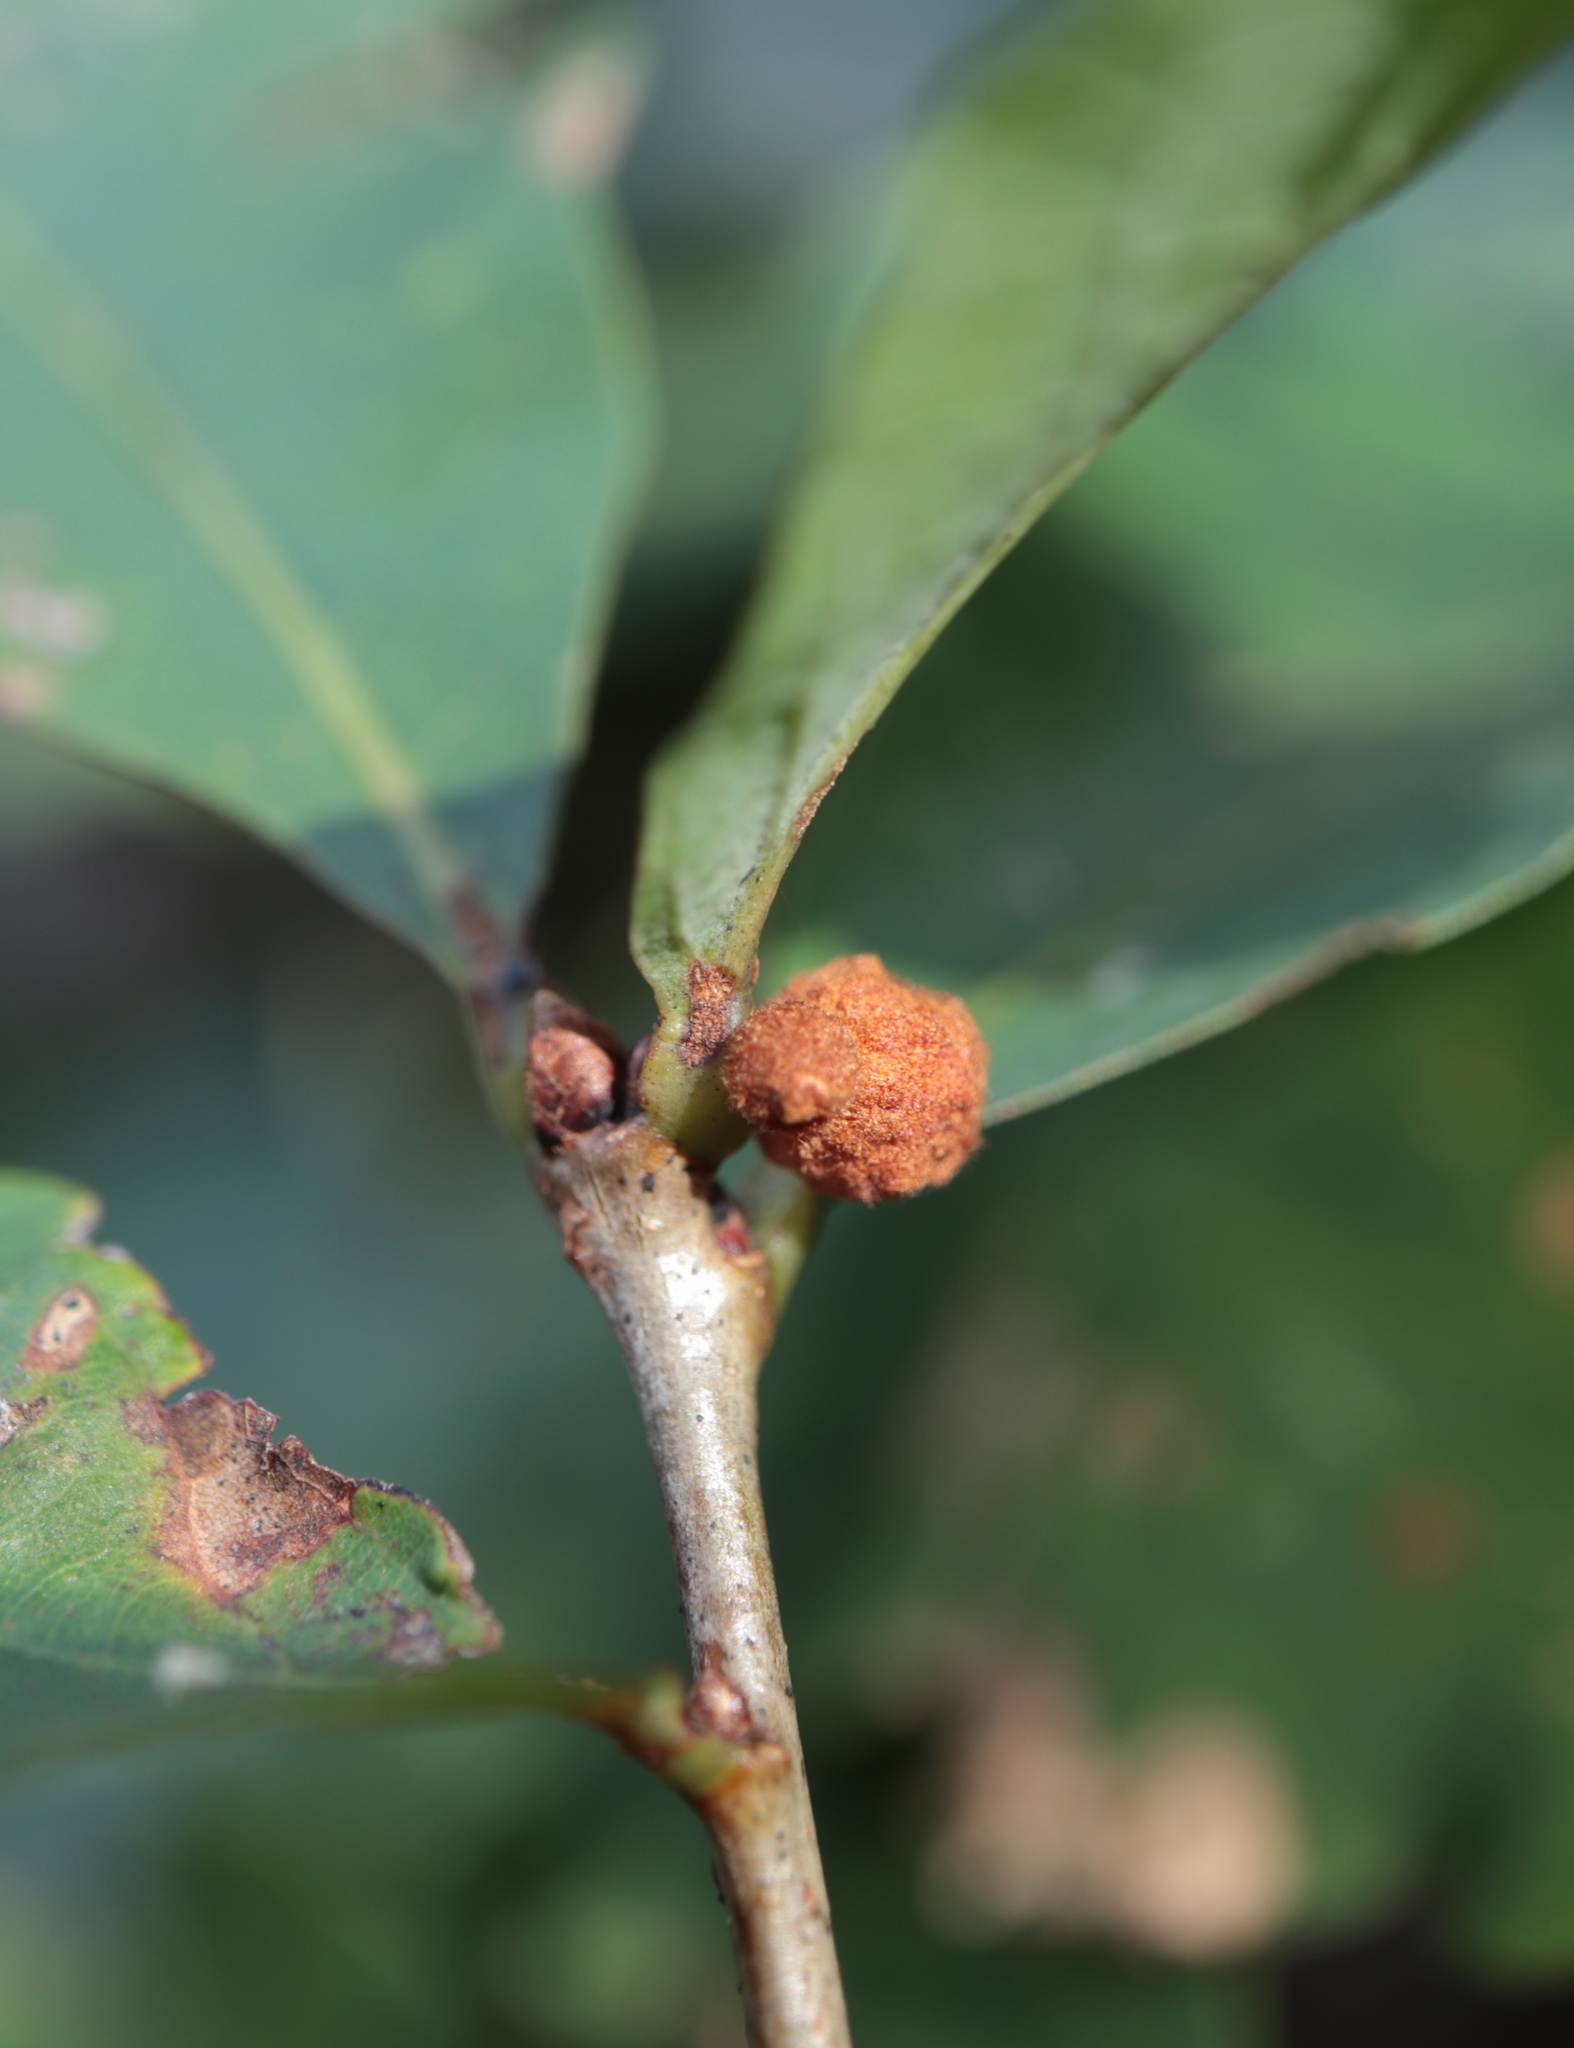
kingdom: Animalia
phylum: Arthropoda
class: Insecta
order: Hymenoptera
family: Cynipidae
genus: Andricus
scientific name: Andricus
